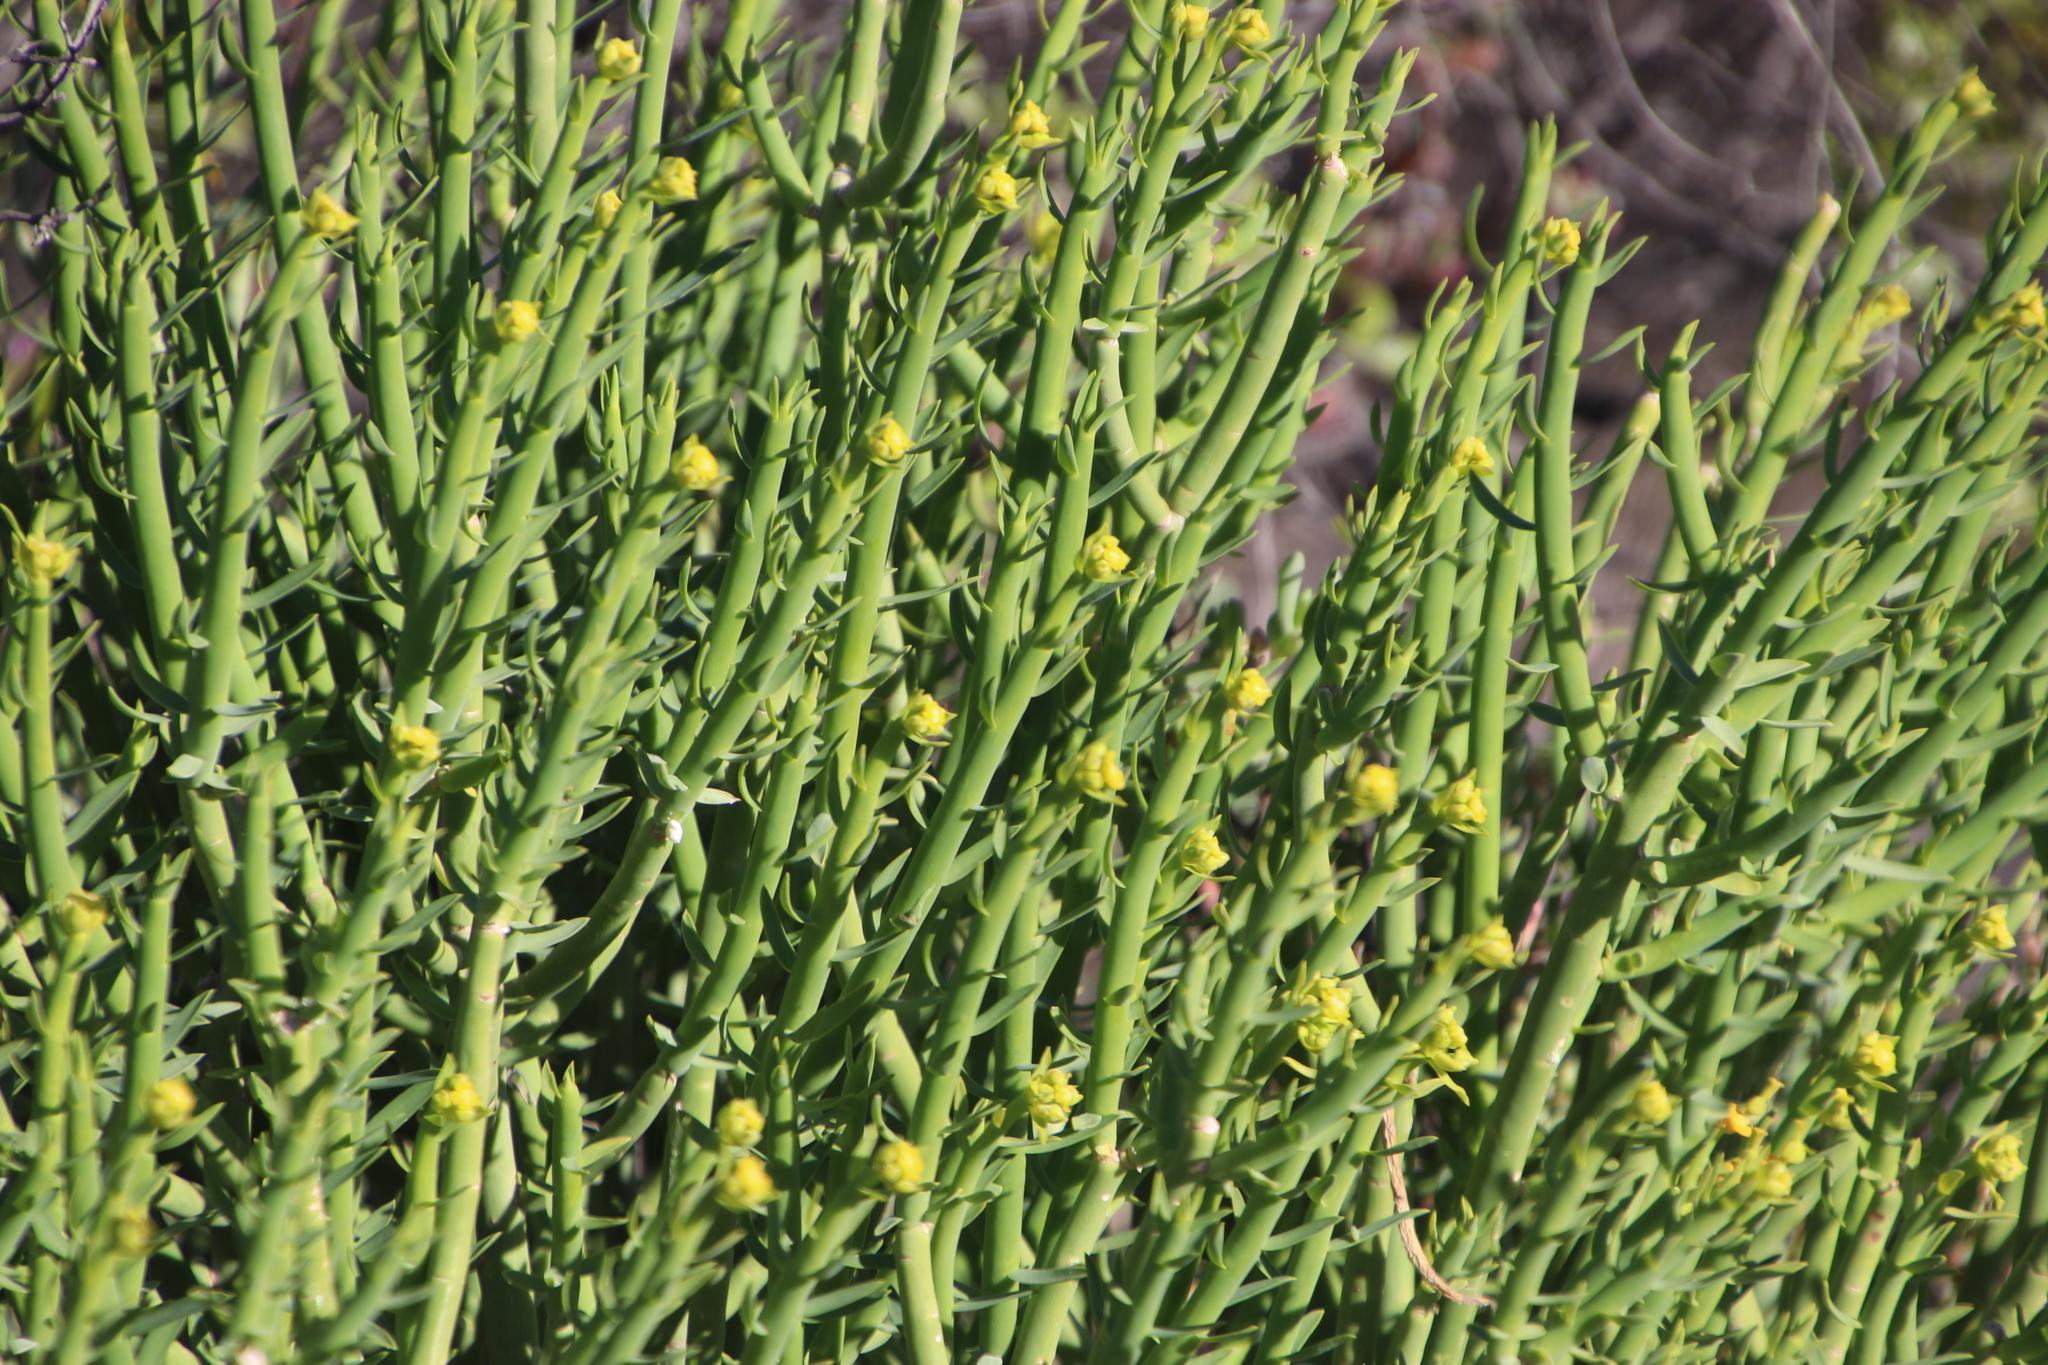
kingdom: Plantae
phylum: Tracheophyta
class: Magnoliopsida
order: Malpighiales
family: Euphorbiaceae
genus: Euphorbia
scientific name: Euphorbia mauritanica
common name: Jackal's-food
